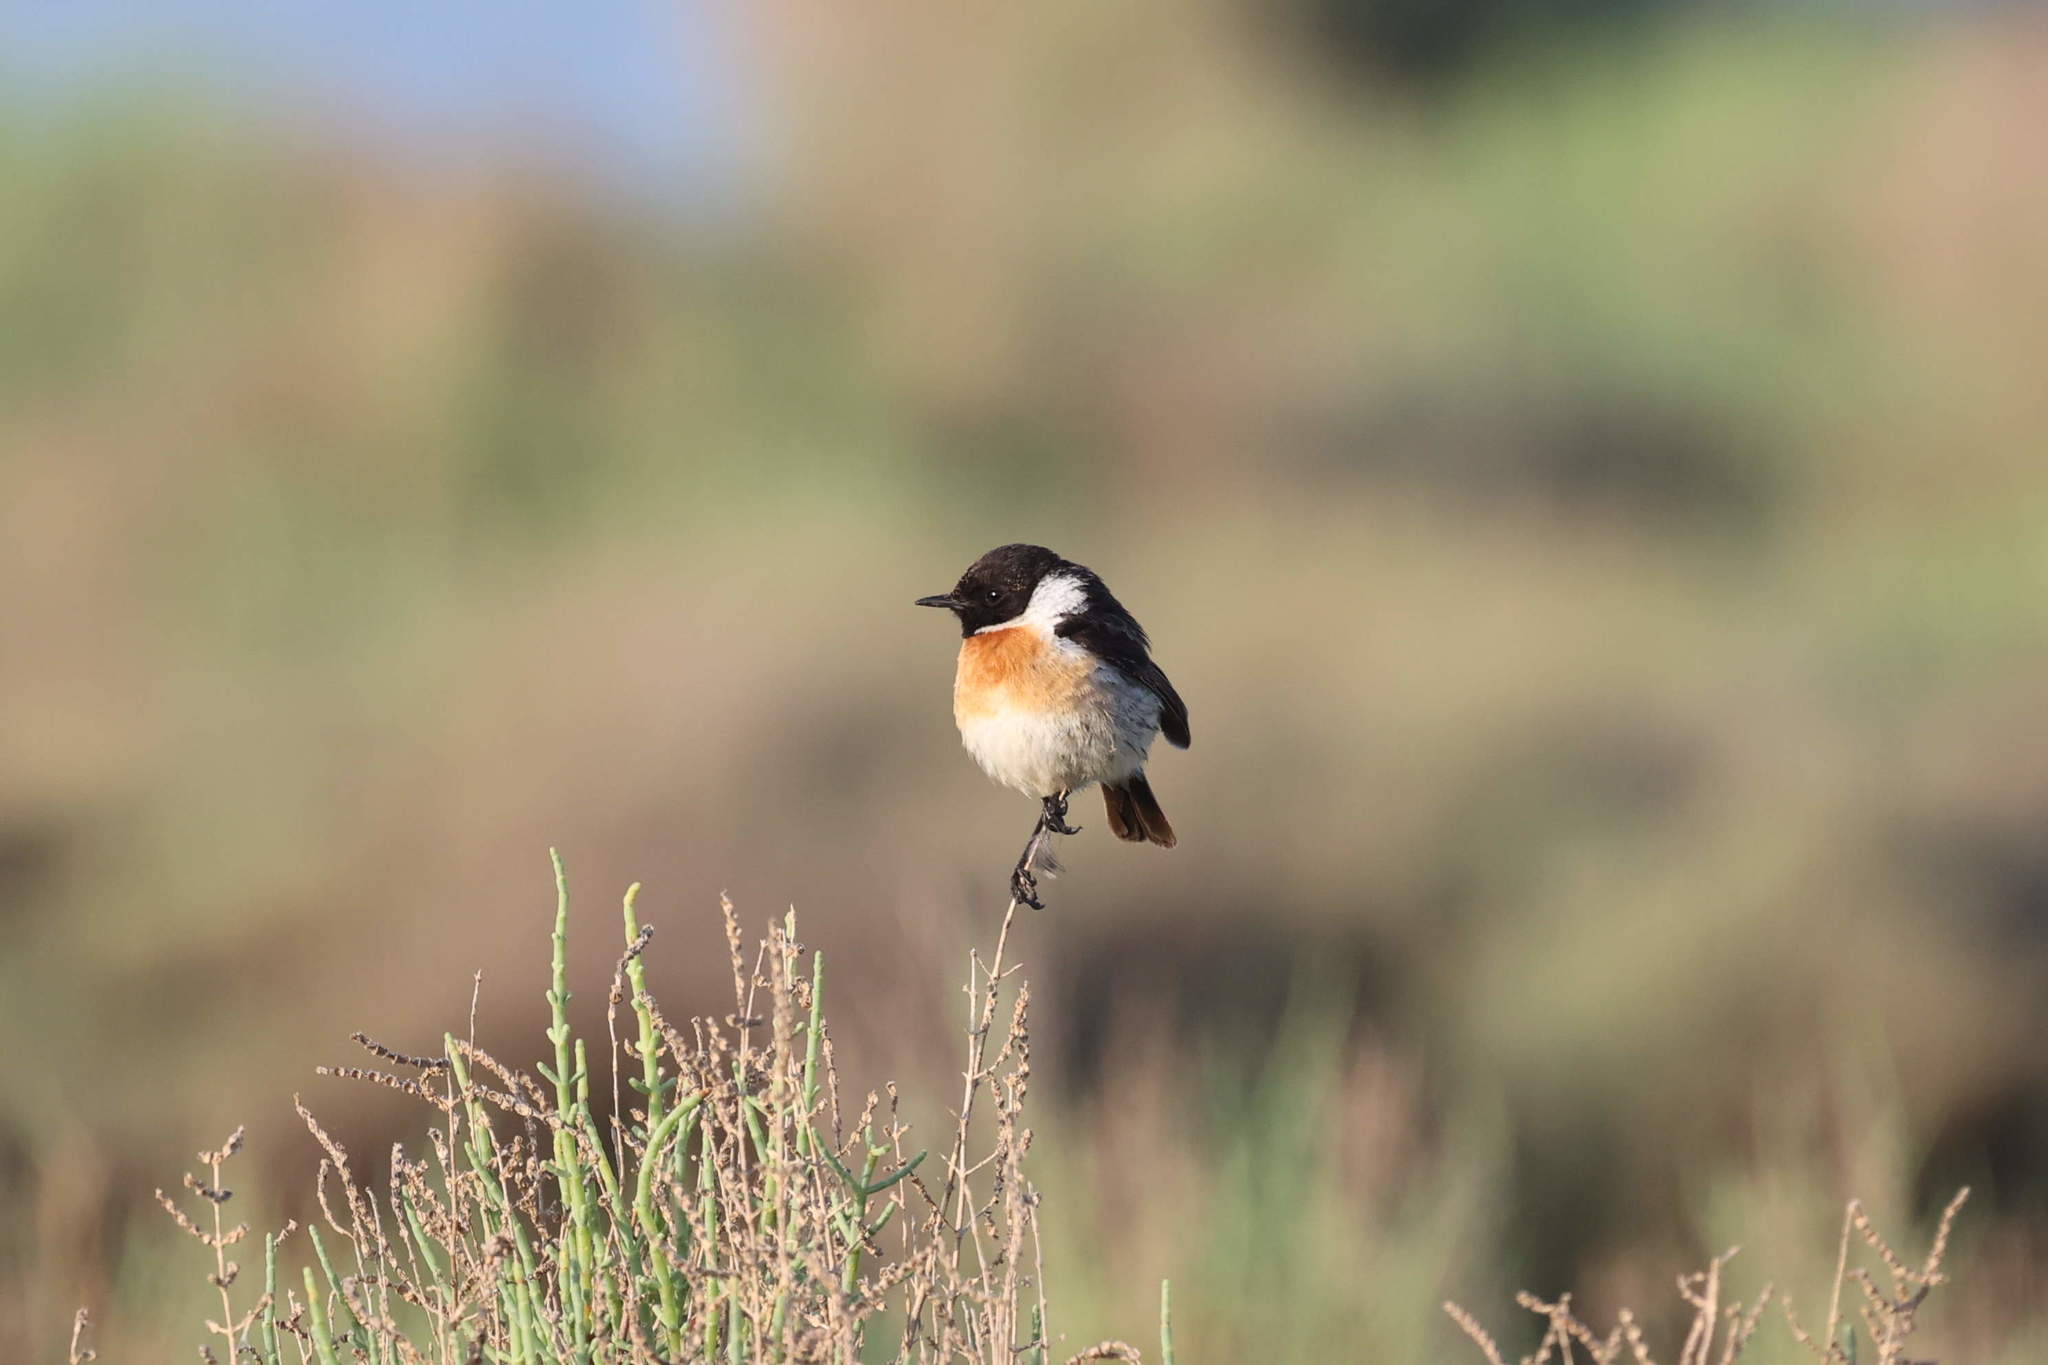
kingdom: Animalia
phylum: Chordata
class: Aves
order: Passeriformes
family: Muscicapidae
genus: Saxicola
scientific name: Saxicola rubicola
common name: European stonechat
